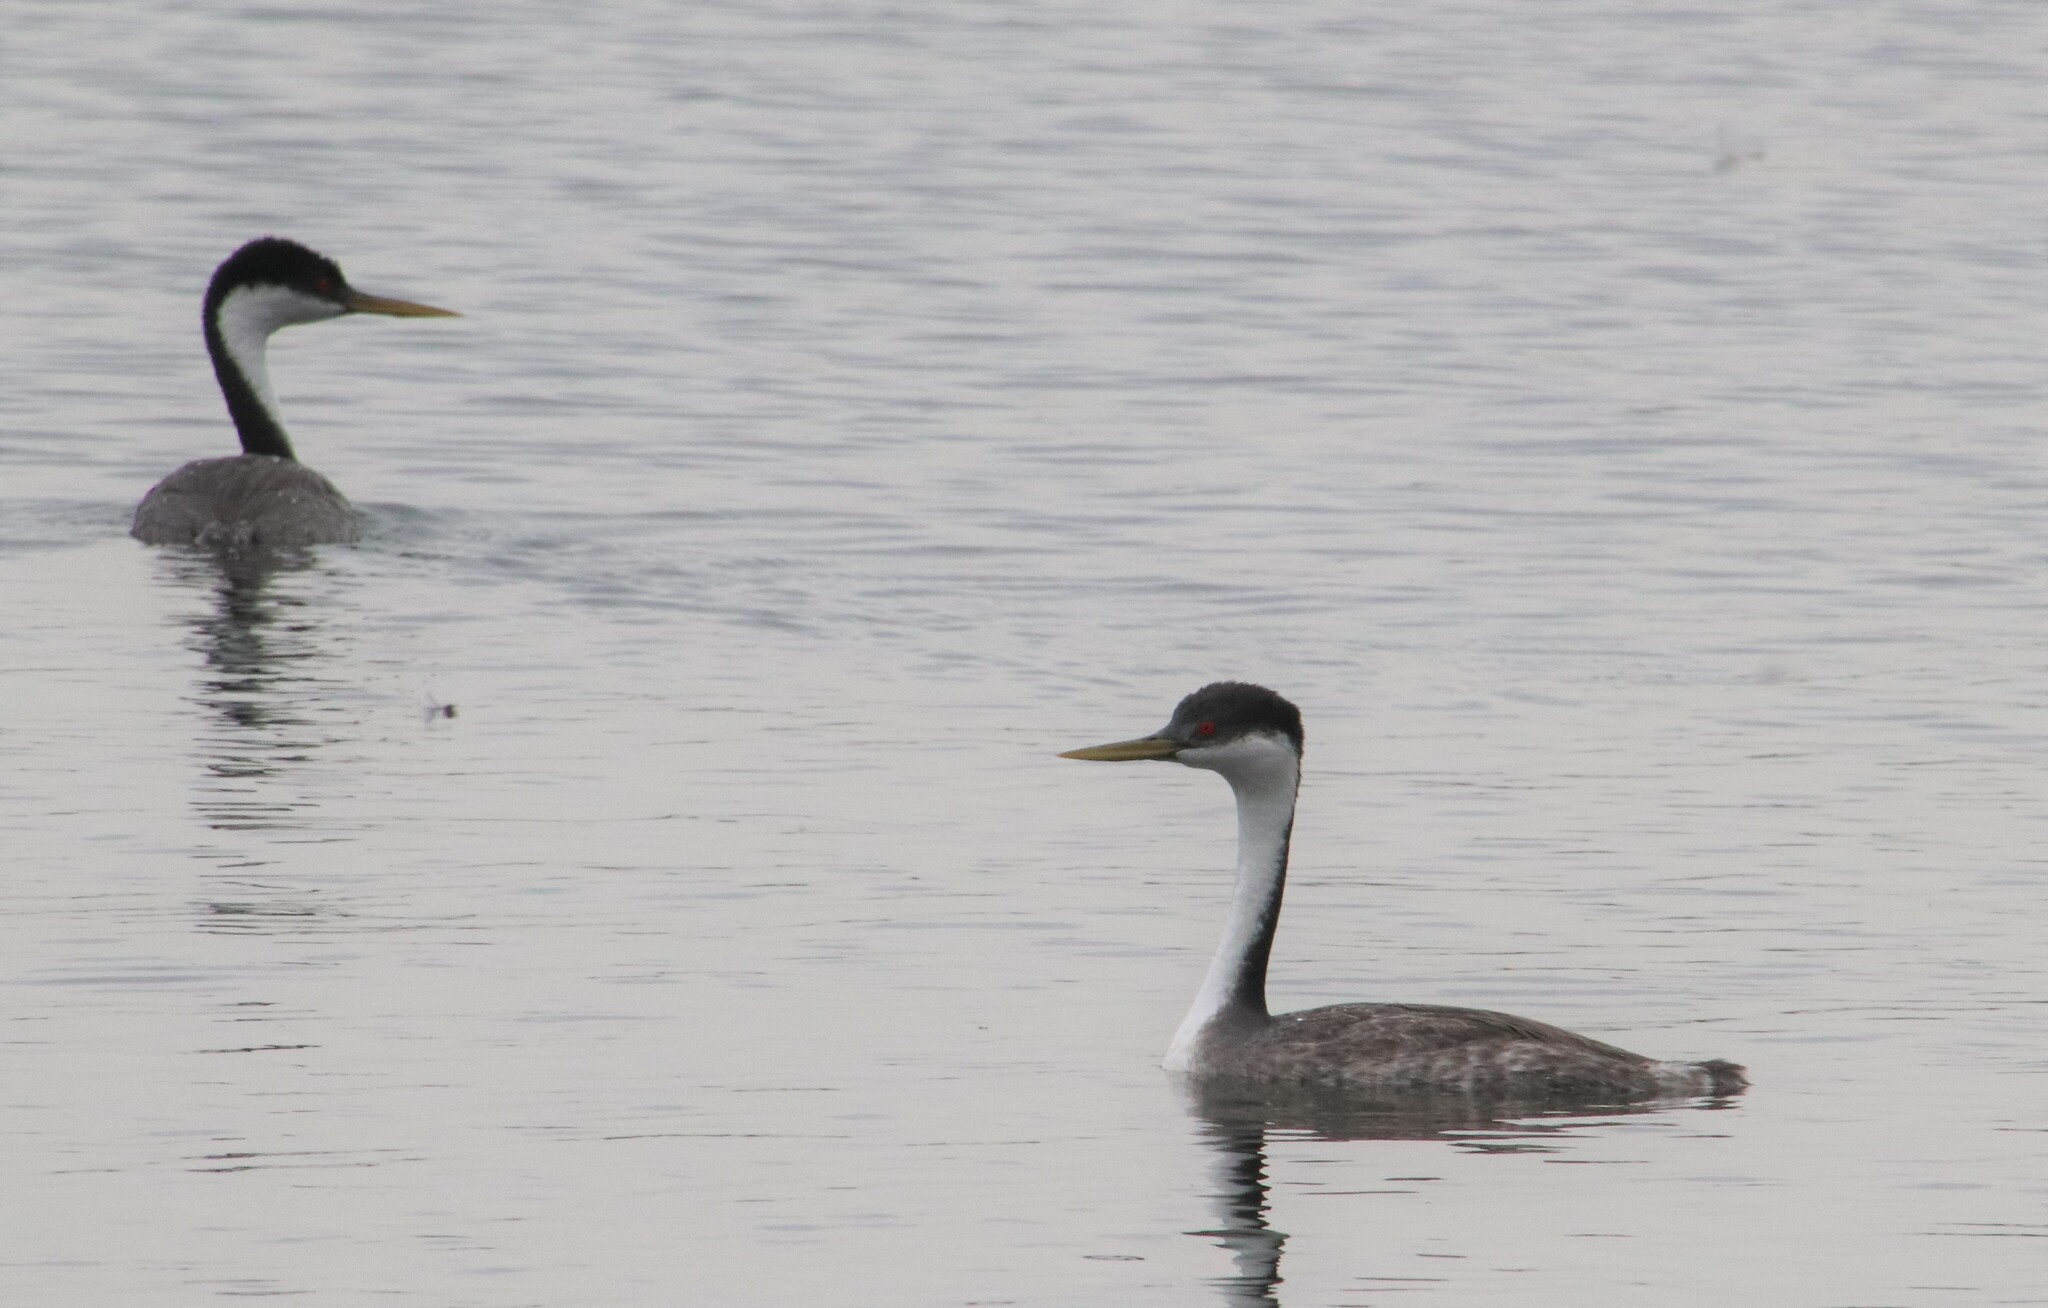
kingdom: Animalia
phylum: Chordata
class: Aves
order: Podicipediformes
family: Podicipedidae
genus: Aechmophorus
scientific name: Aechmophorus occidentalis
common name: Western grebe
